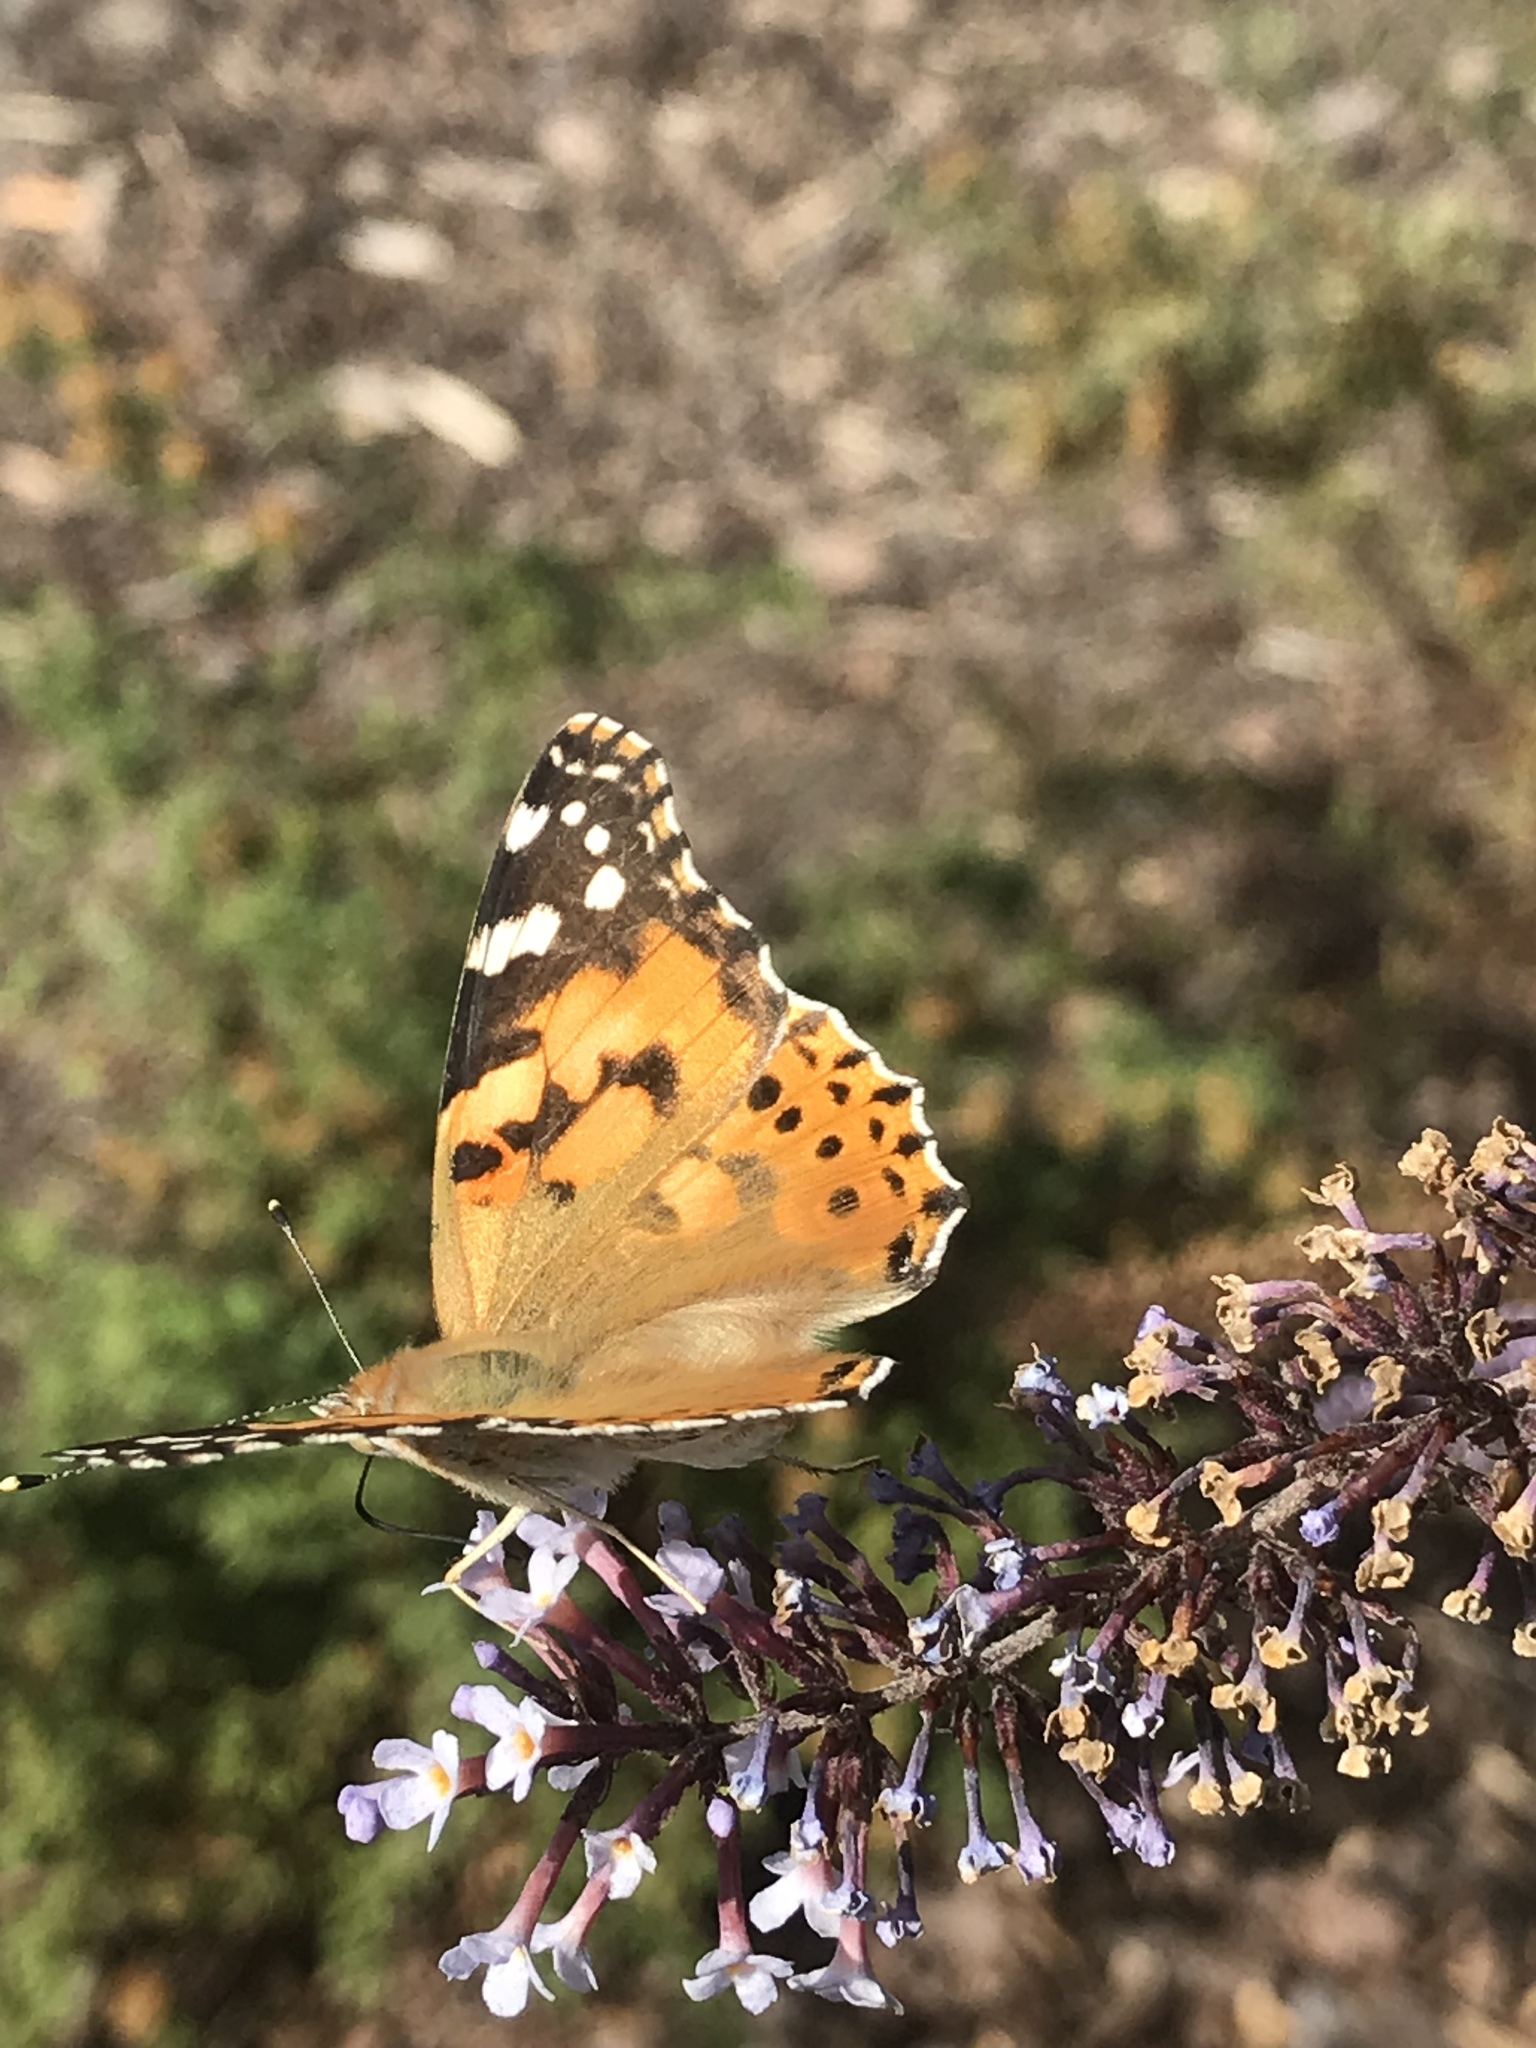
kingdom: Animalia
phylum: Arthropoda
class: Insecta
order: Lepidoptera
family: Nymphalidae
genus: Vanessa
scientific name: Vanessa cardui
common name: Painted lady
